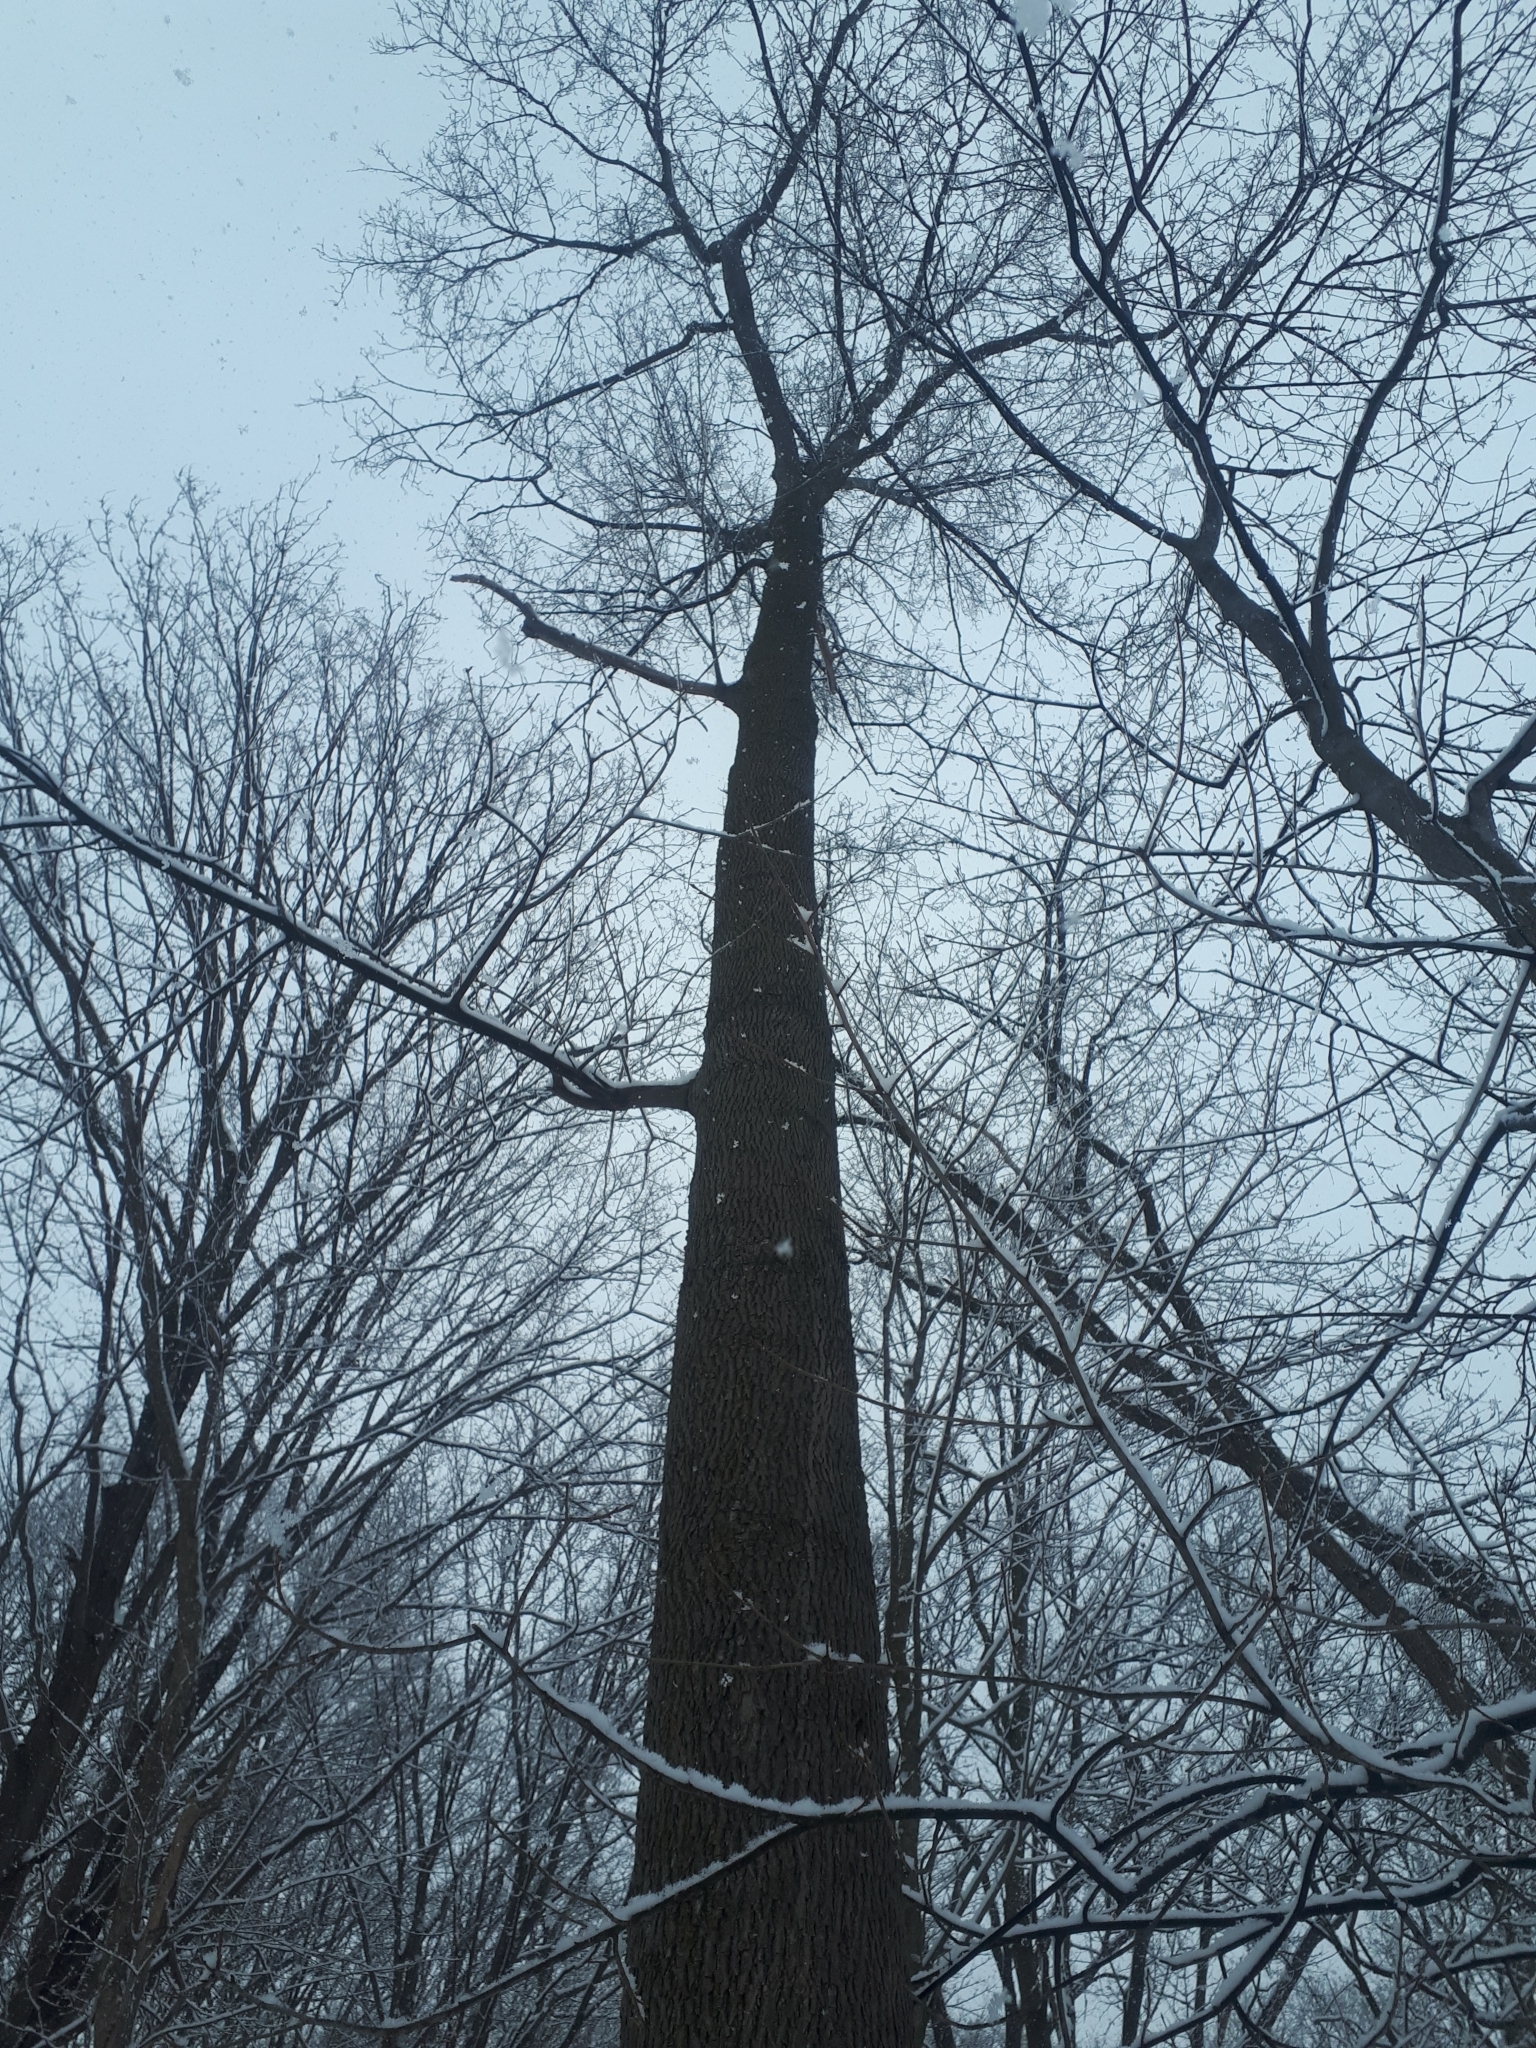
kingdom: Plantae
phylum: Tracheophyta
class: Magnoliopsida
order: Fagales
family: Juglandaceae
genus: Carya
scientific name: Carya cordiformis
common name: Bitternut hickory
